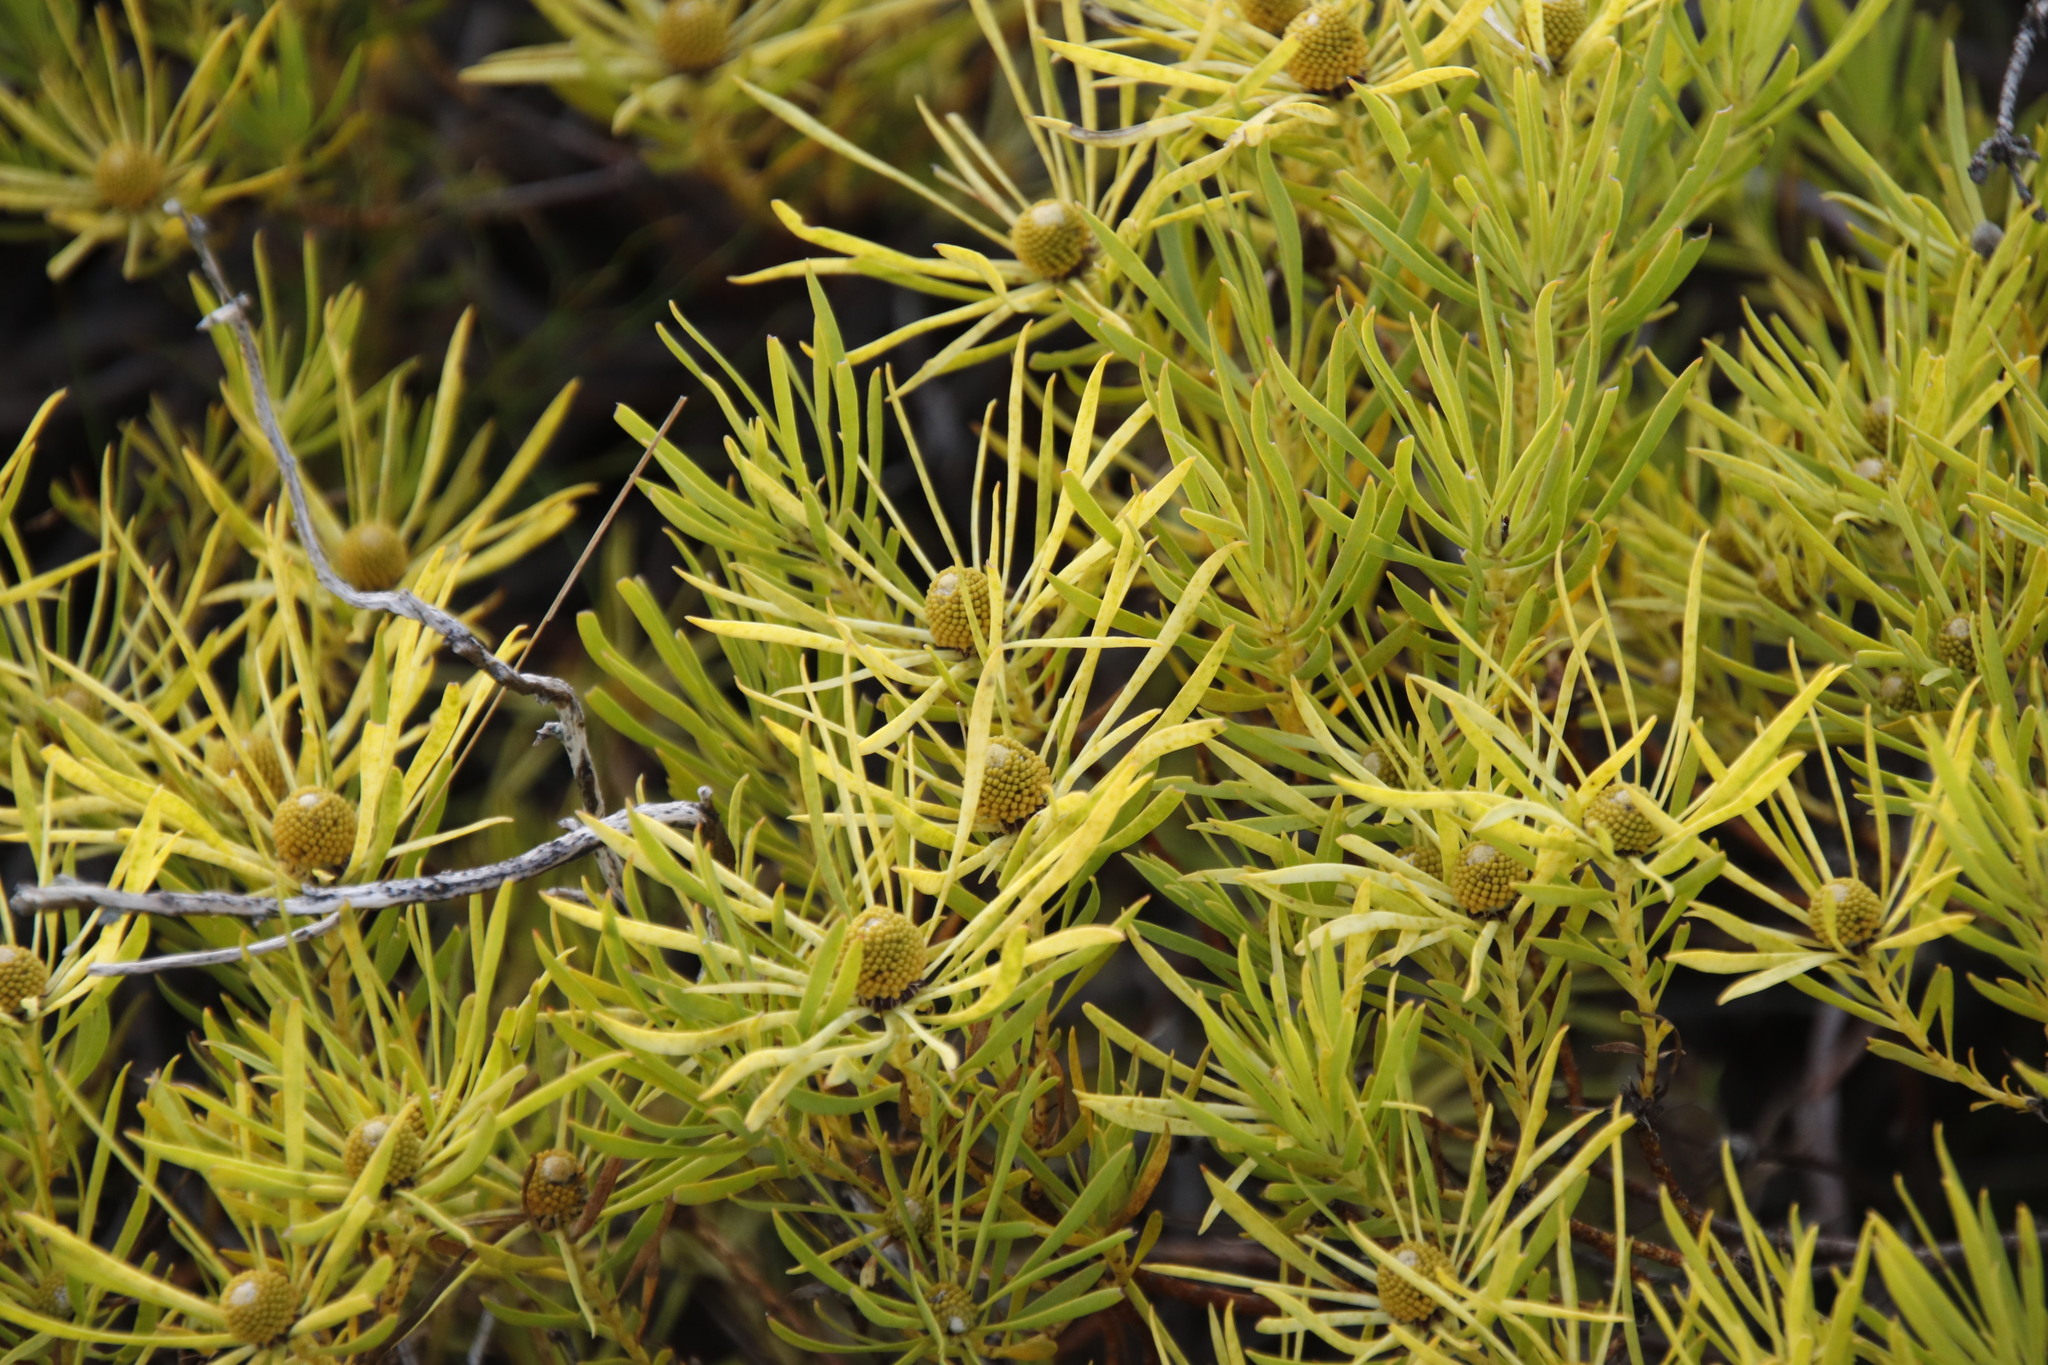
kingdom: Plantae
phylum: Tracheophyta
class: Magnoliopsida
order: Proteales
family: Proteaceae
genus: Leucadendron
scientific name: Leucadendron salignum
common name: Common sunshine conebush
